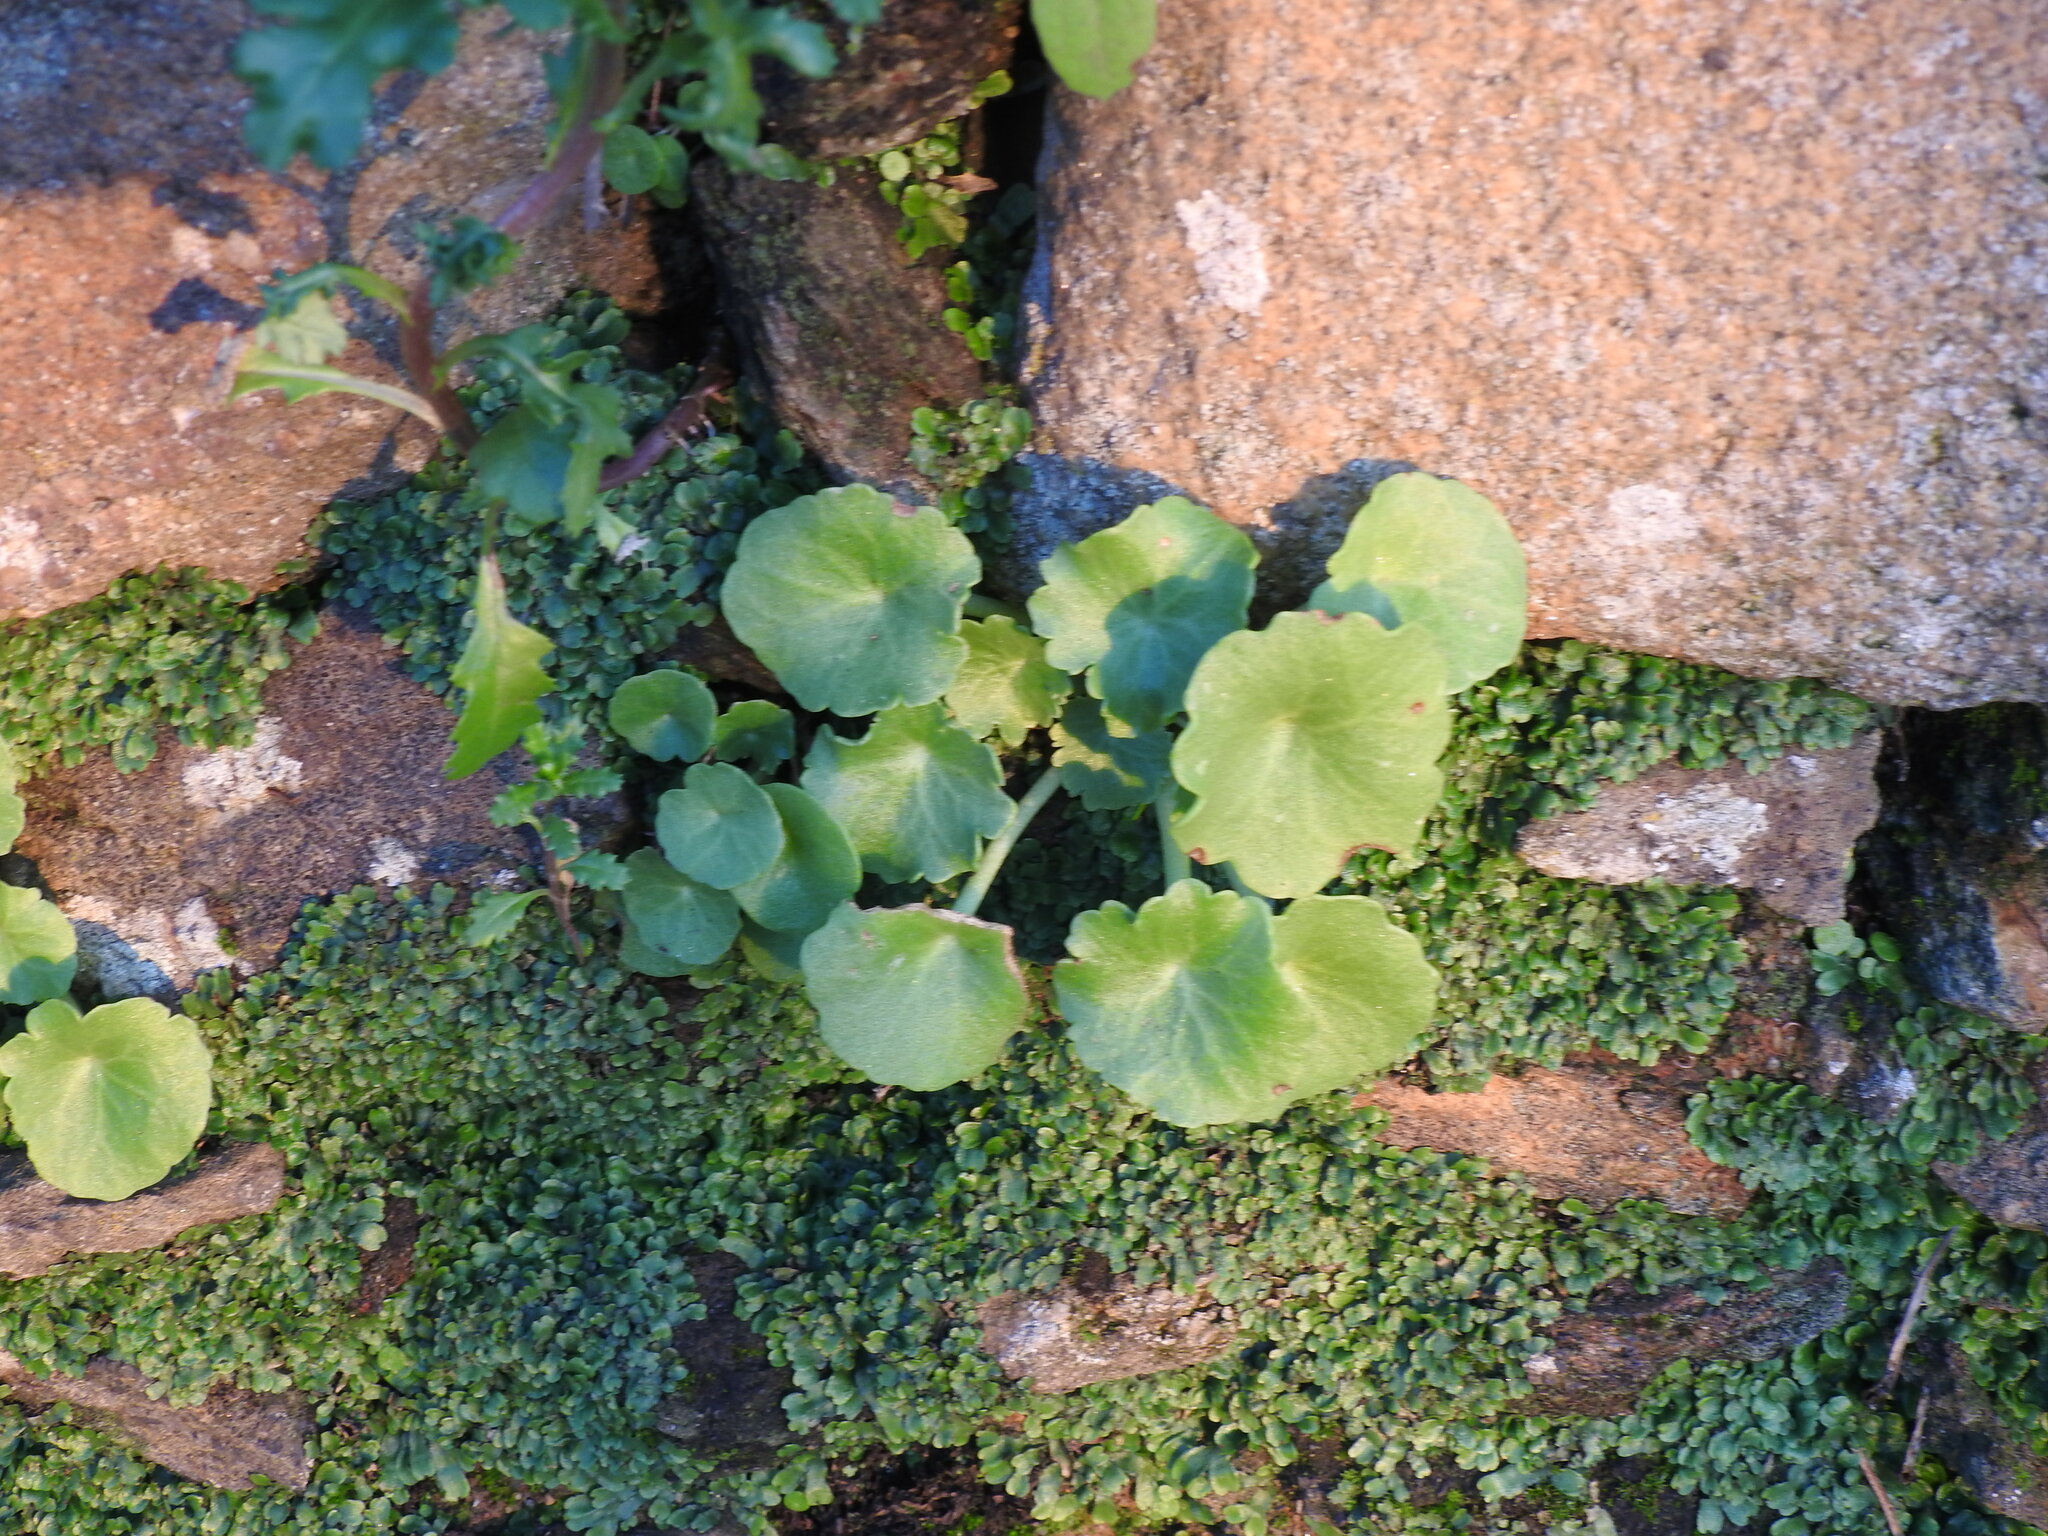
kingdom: Plantae
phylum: Tracheophyta
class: Magnoliopsida
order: Saxifragales
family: Crassulaceae
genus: Umbilicus
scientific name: Umbilicus rupestris
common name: Navelwort
